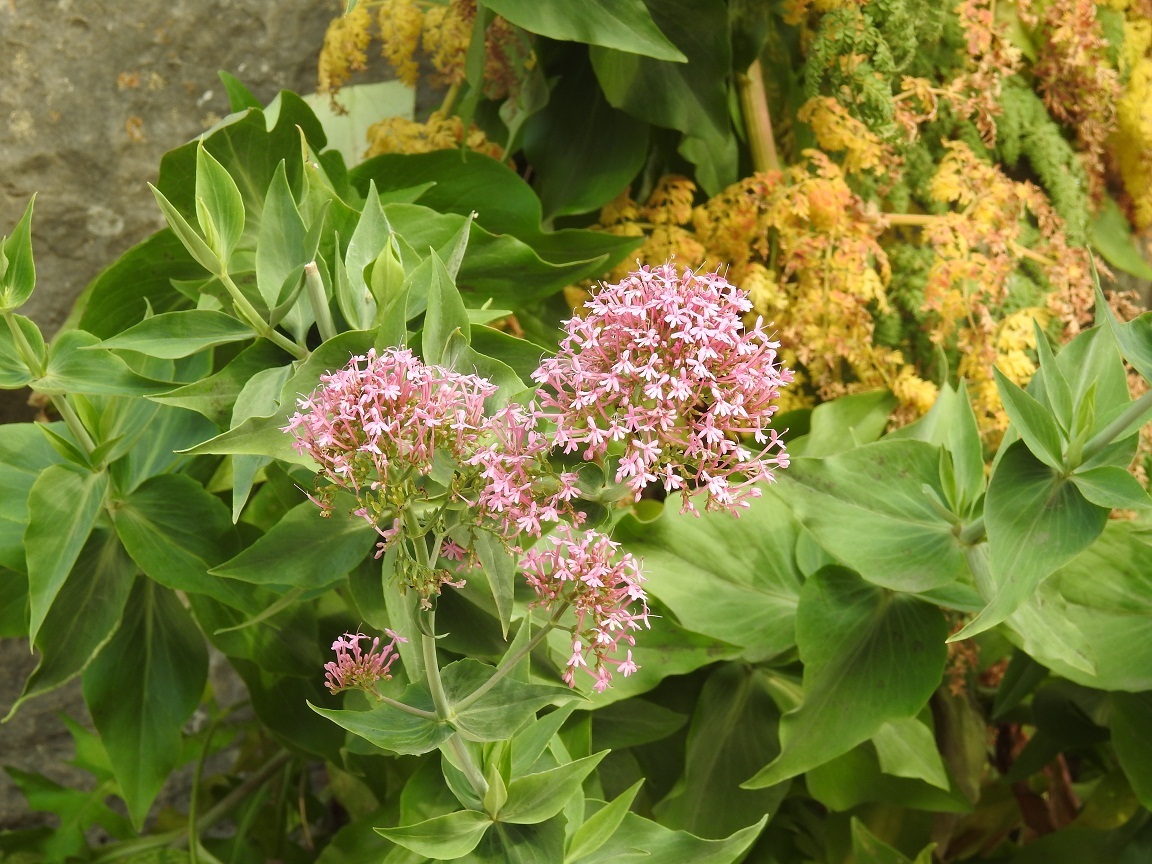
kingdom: Plantae
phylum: Tracheophyta
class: Magnoliopsida
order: Dipsacales
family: Caprifoliaceae
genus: Centranthus
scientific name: Centranthus ruber
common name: Red valerian
